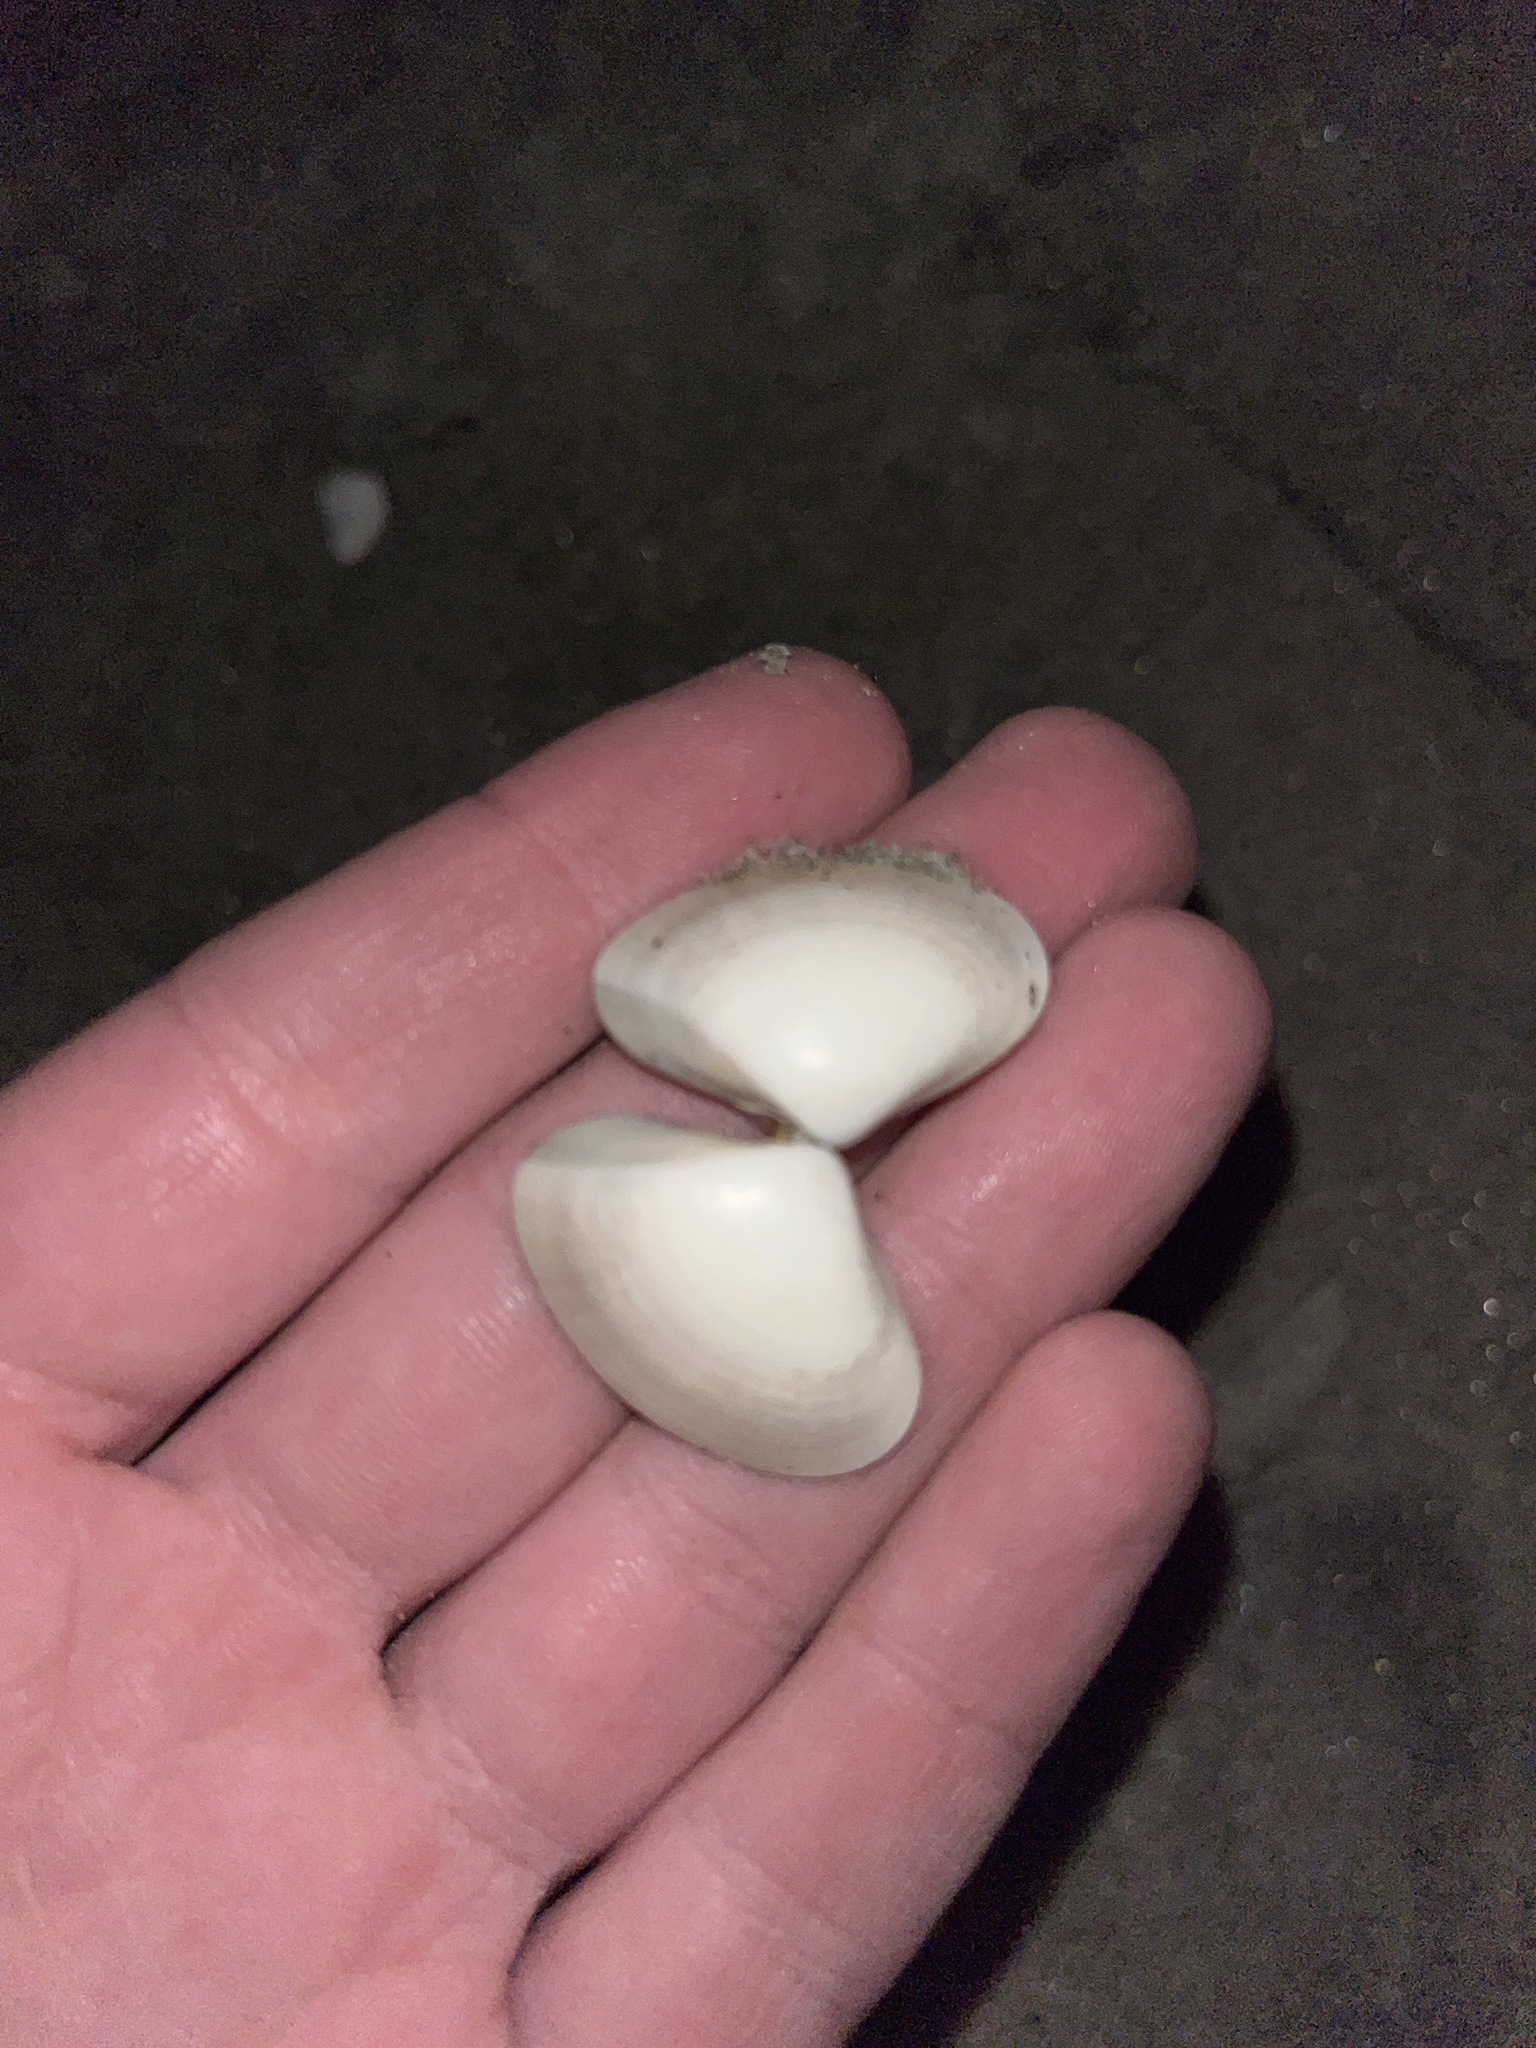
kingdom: Animalia
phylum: Mollusca
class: Bivalvia
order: Venerida
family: Veneridae
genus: Tivela
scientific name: Tivela stultorum
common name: Pismo clam
